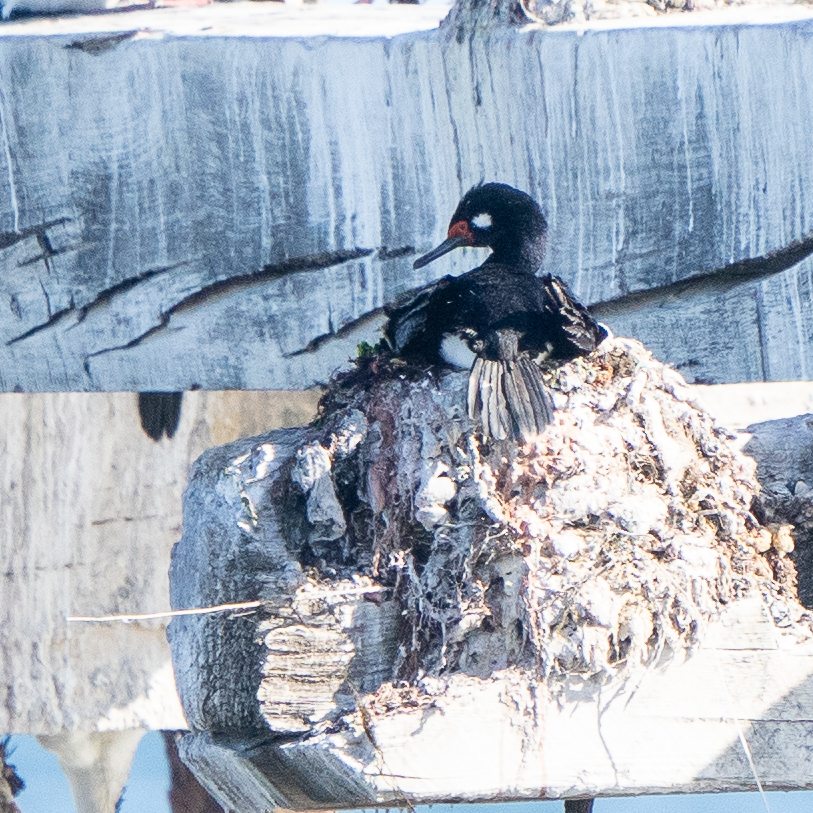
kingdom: Animalia
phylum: Chordata
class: Aves
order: Suliformes
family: Phalacrocoracidae
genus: Phalacrocorax
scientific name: Phalacrocorax magellanicus
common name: Rock shag
